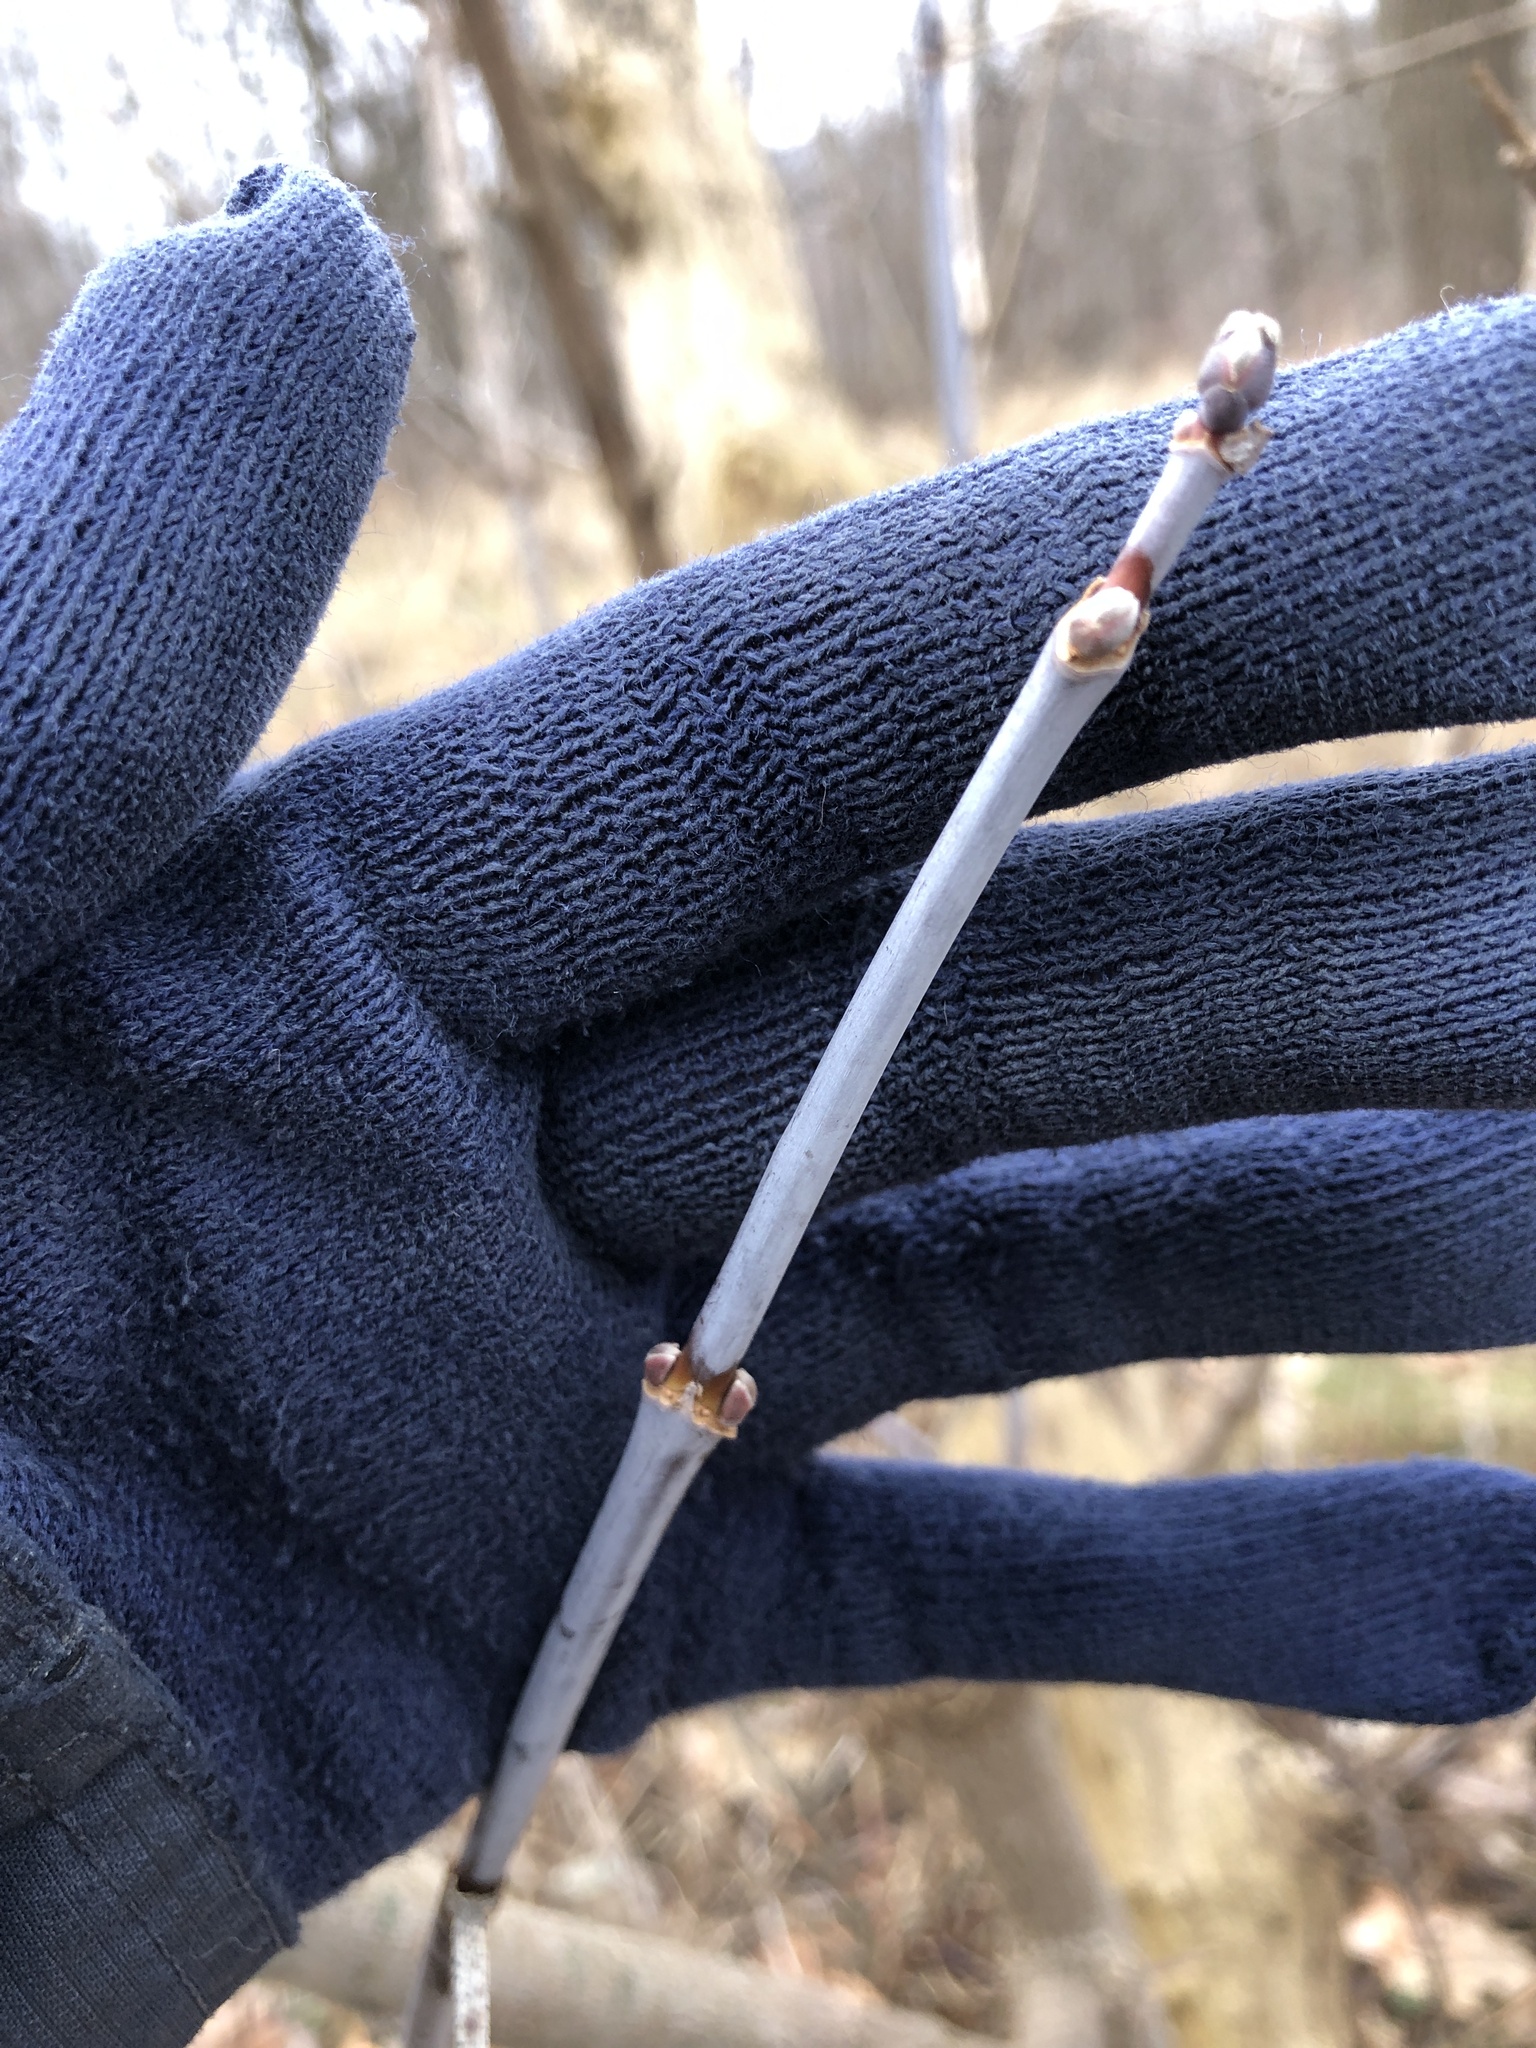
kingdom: Plantae
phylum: Tracheophyta
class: Magnoliopsida
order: Sapindales
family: Sapindaceae
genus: Acer
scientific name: Acer negundo
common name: Ashleaf maple
